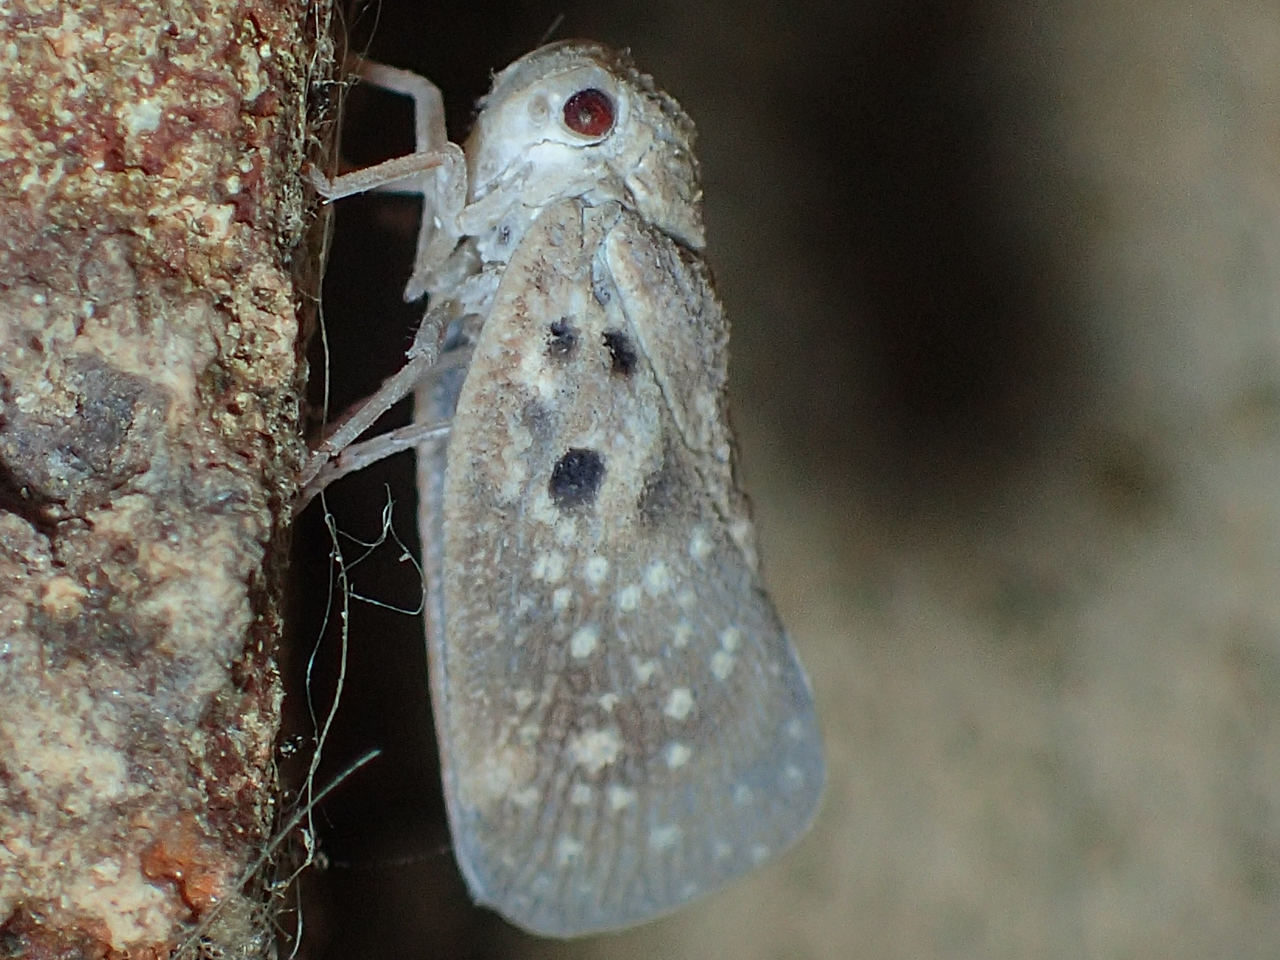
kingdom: Animalia
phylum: Arthropoda
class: Insecta
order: Hemiptera
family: Flatidae
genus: Metcalfa
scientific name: Metcalfa pruinosa
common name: Citrus flatid planthopper
